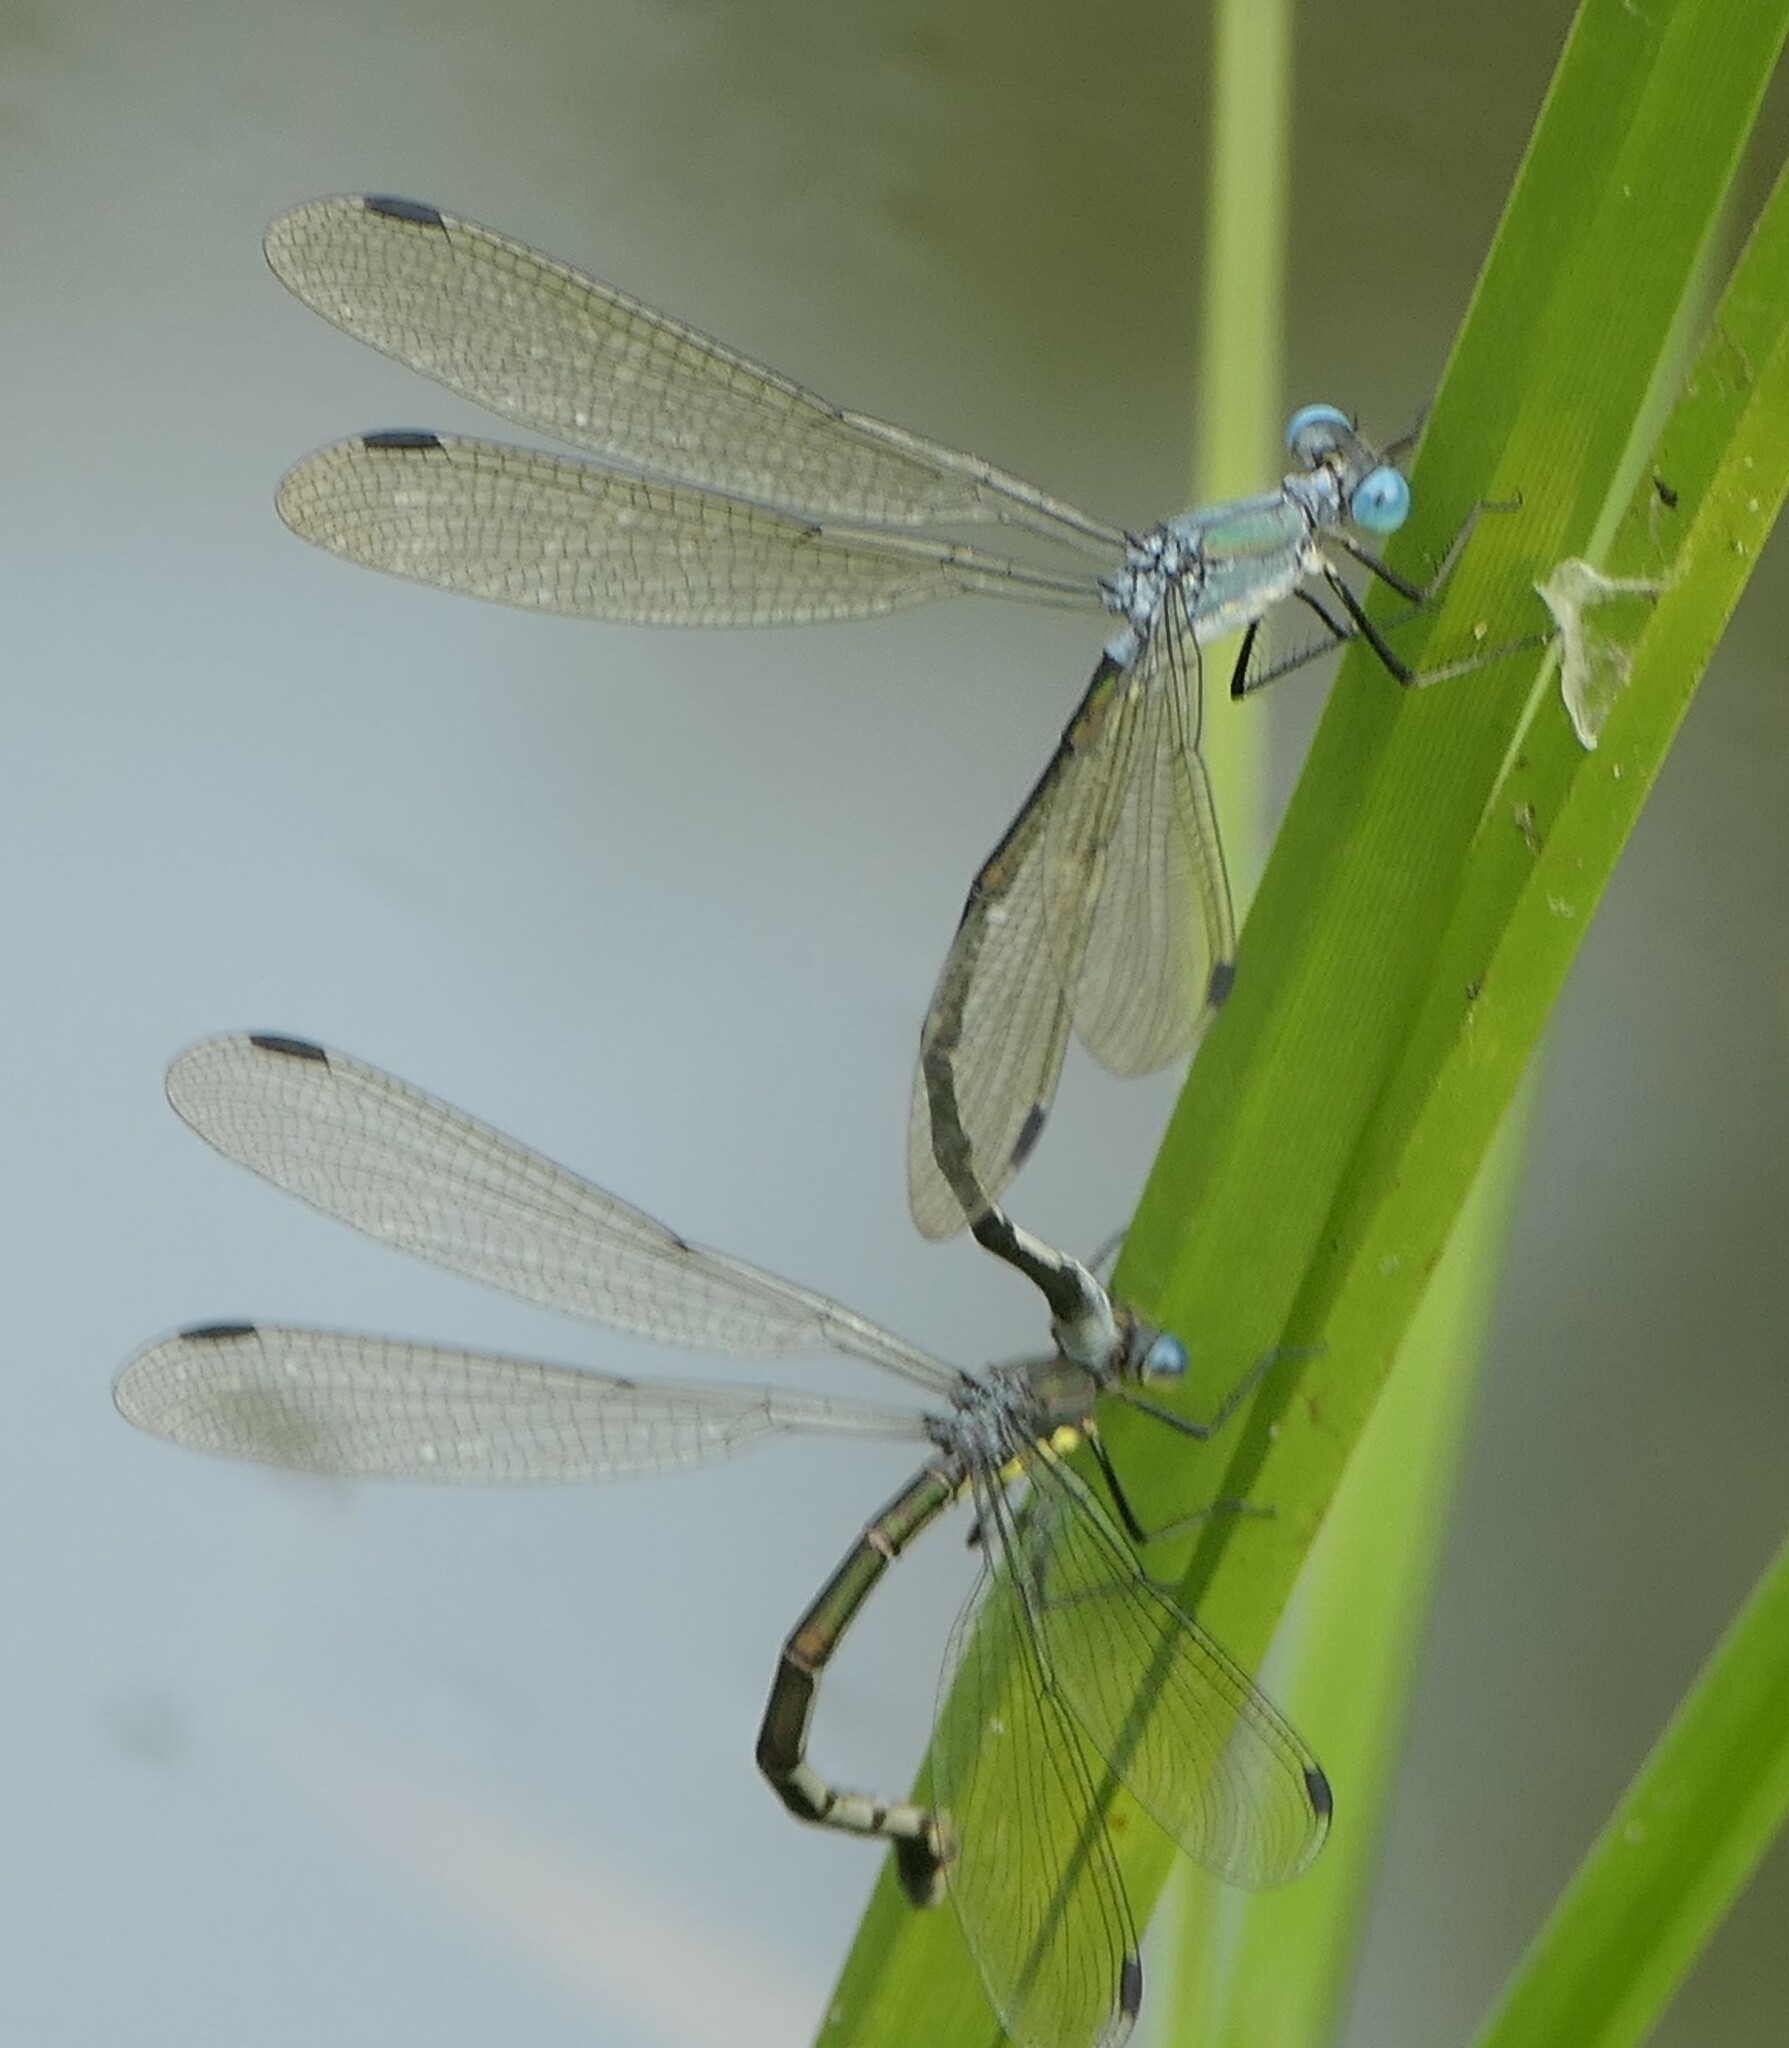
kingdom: Animalia
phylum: Arthropoda
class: Insecta
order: Odonata
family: Lestidae
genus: Lestes
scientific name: Lestes eurinus
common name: Amber-winged spreadwing
